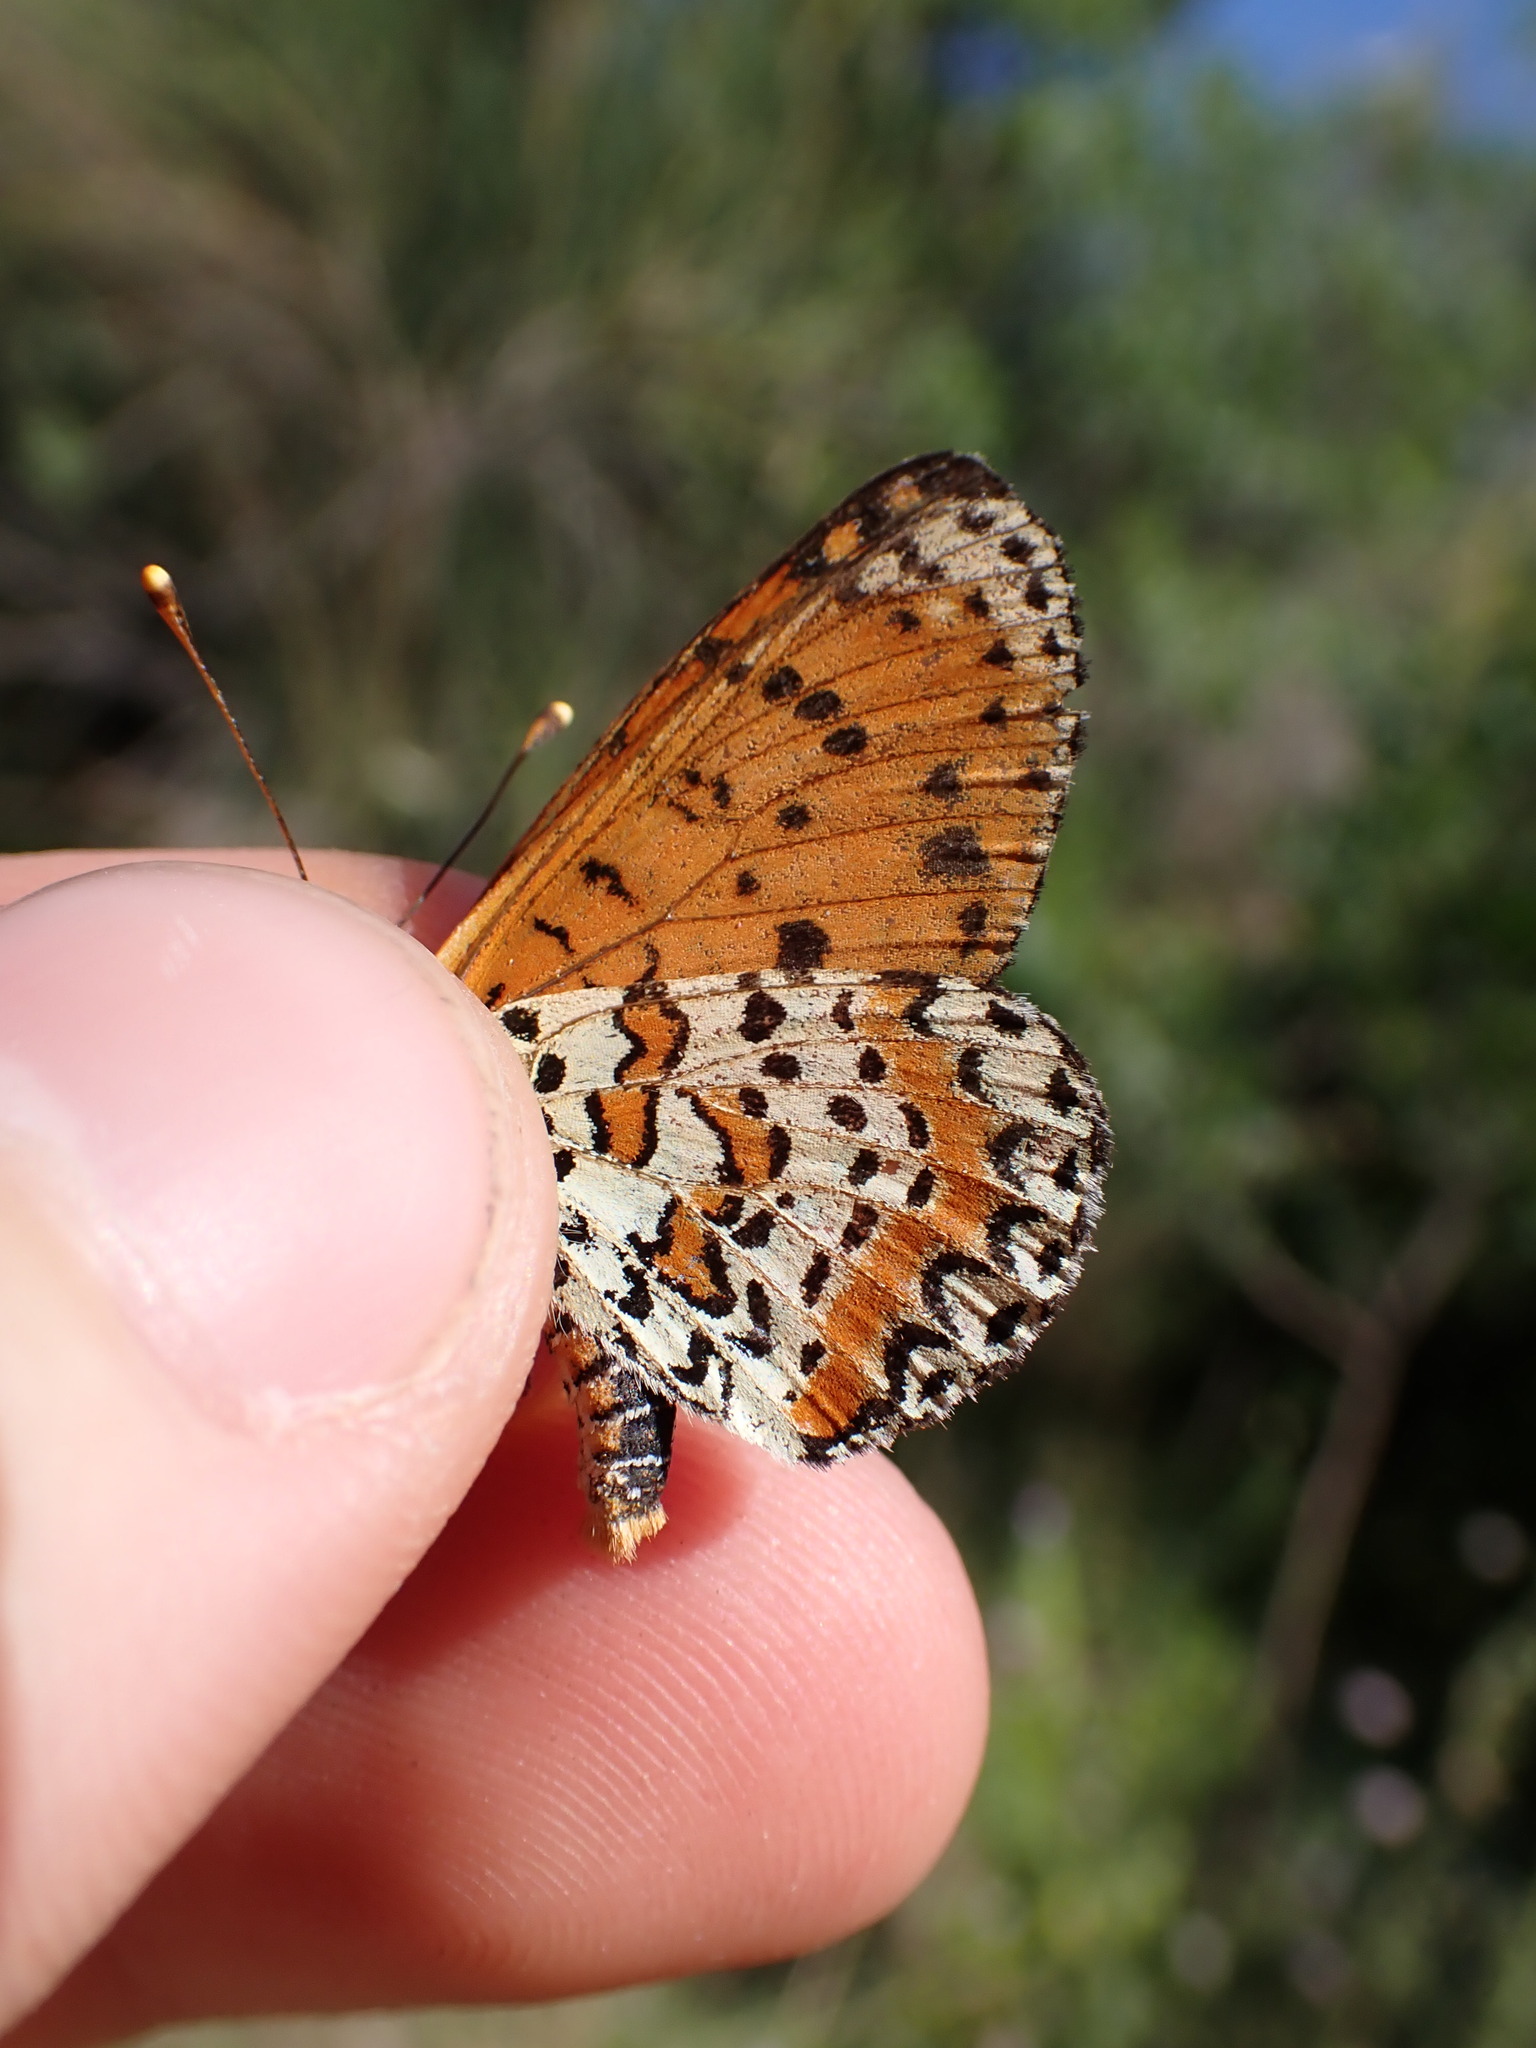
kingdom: Animalia
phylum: Arthropoda
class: Insecta
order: Lepidoptera
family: Nymphalidae
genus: Melitaea
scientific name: Melitaea didyma
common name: Spotted fritillary
